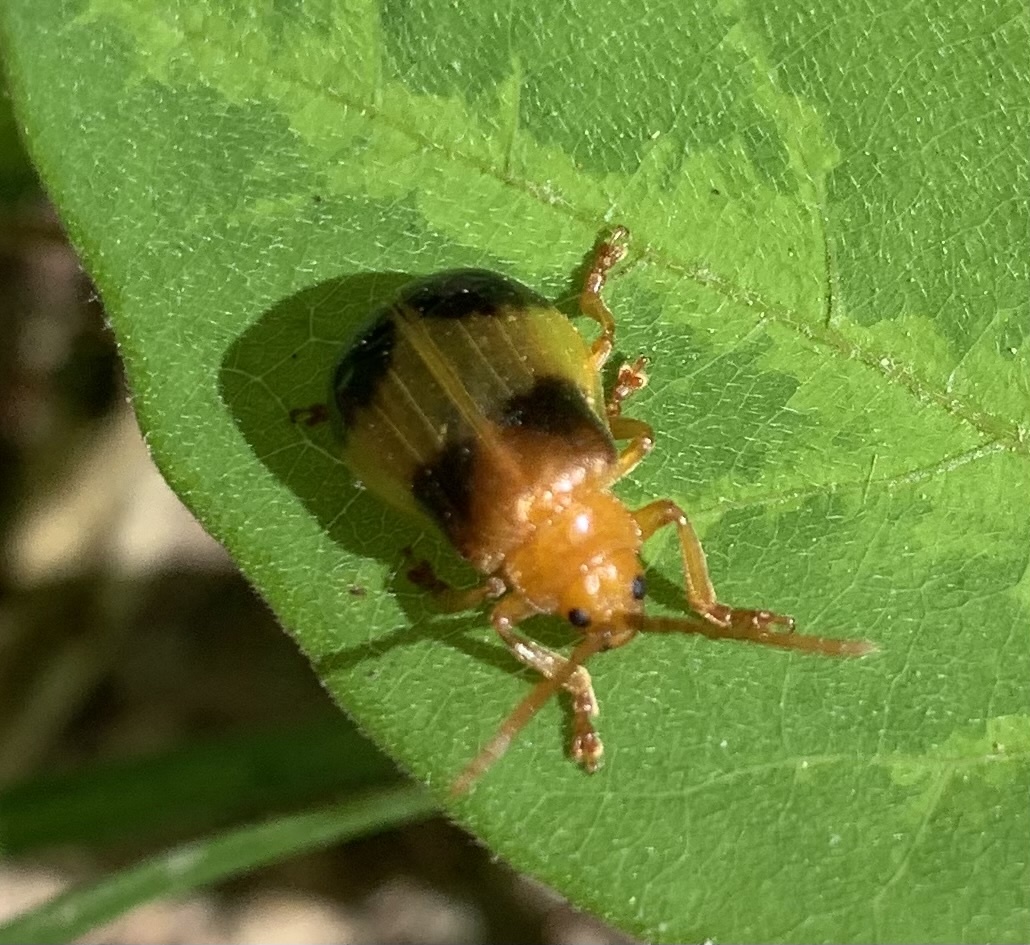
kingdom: Animalia
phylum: Arthropoda
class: Insecta
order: Coleoptera
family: Chrysomelidae
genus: Monocesta
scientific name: Monocesta coryli
